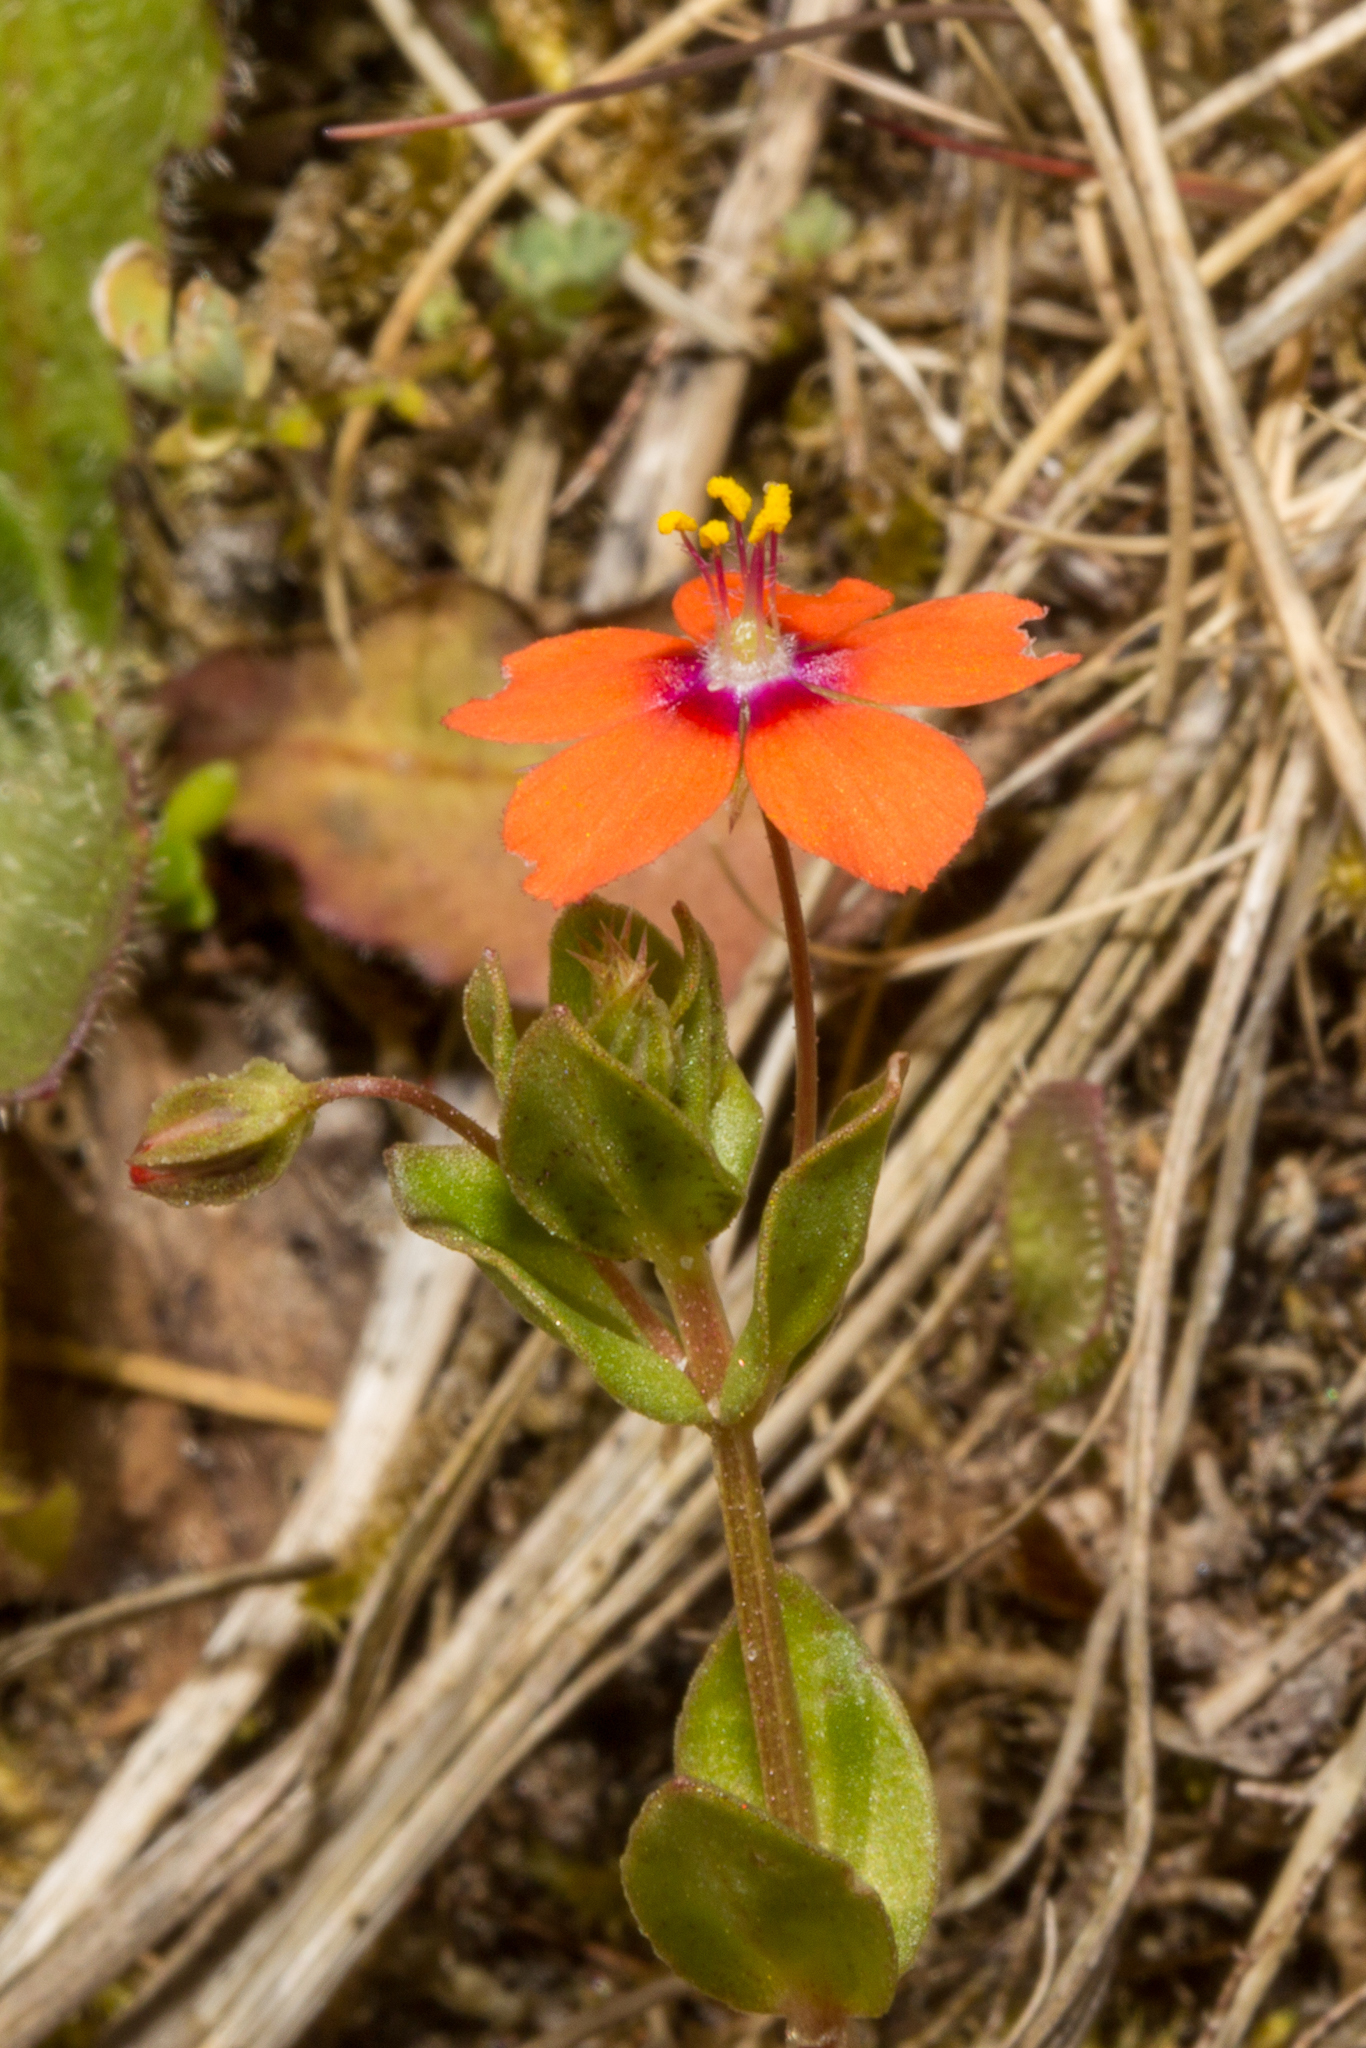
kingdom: Plantae
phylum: Tracheophyta
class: Magnoliopsida
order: Ericales
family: Primulaceae
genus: Lysimachia
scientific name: Lysimachia arvensis
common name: Scarlet pimpernel
